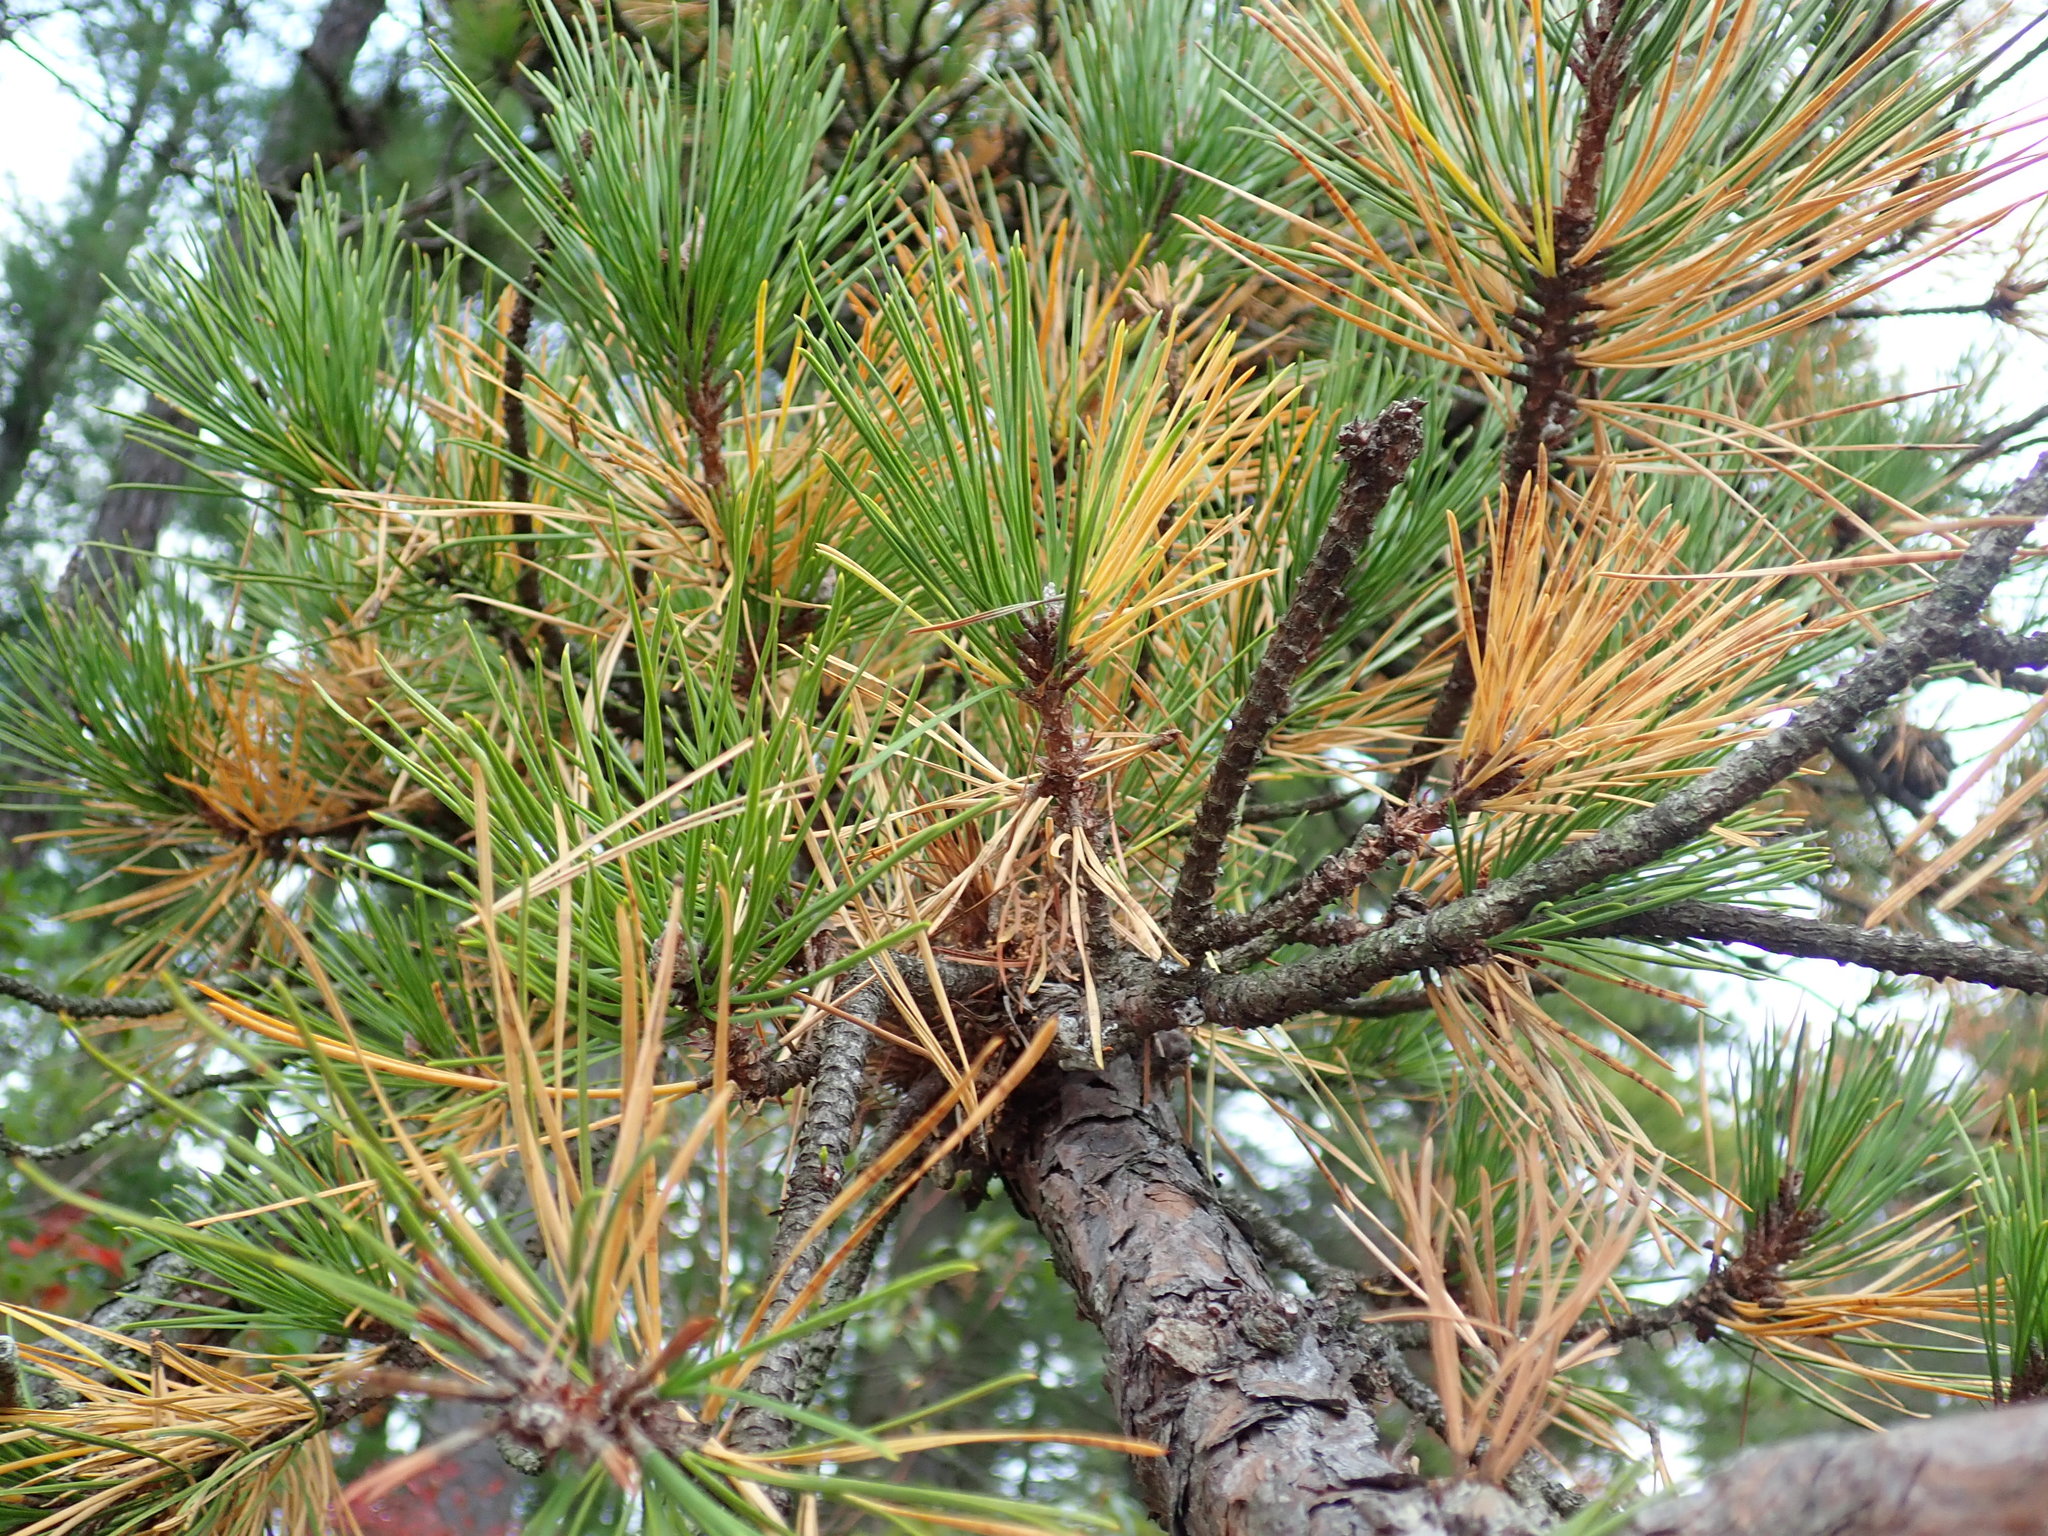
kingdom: Plantae
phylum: Tracheophyta
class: Pinopsida
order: Pinales
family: Pinaceae
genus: Pinus
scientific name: Pinus rigida
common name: Pitch pine
